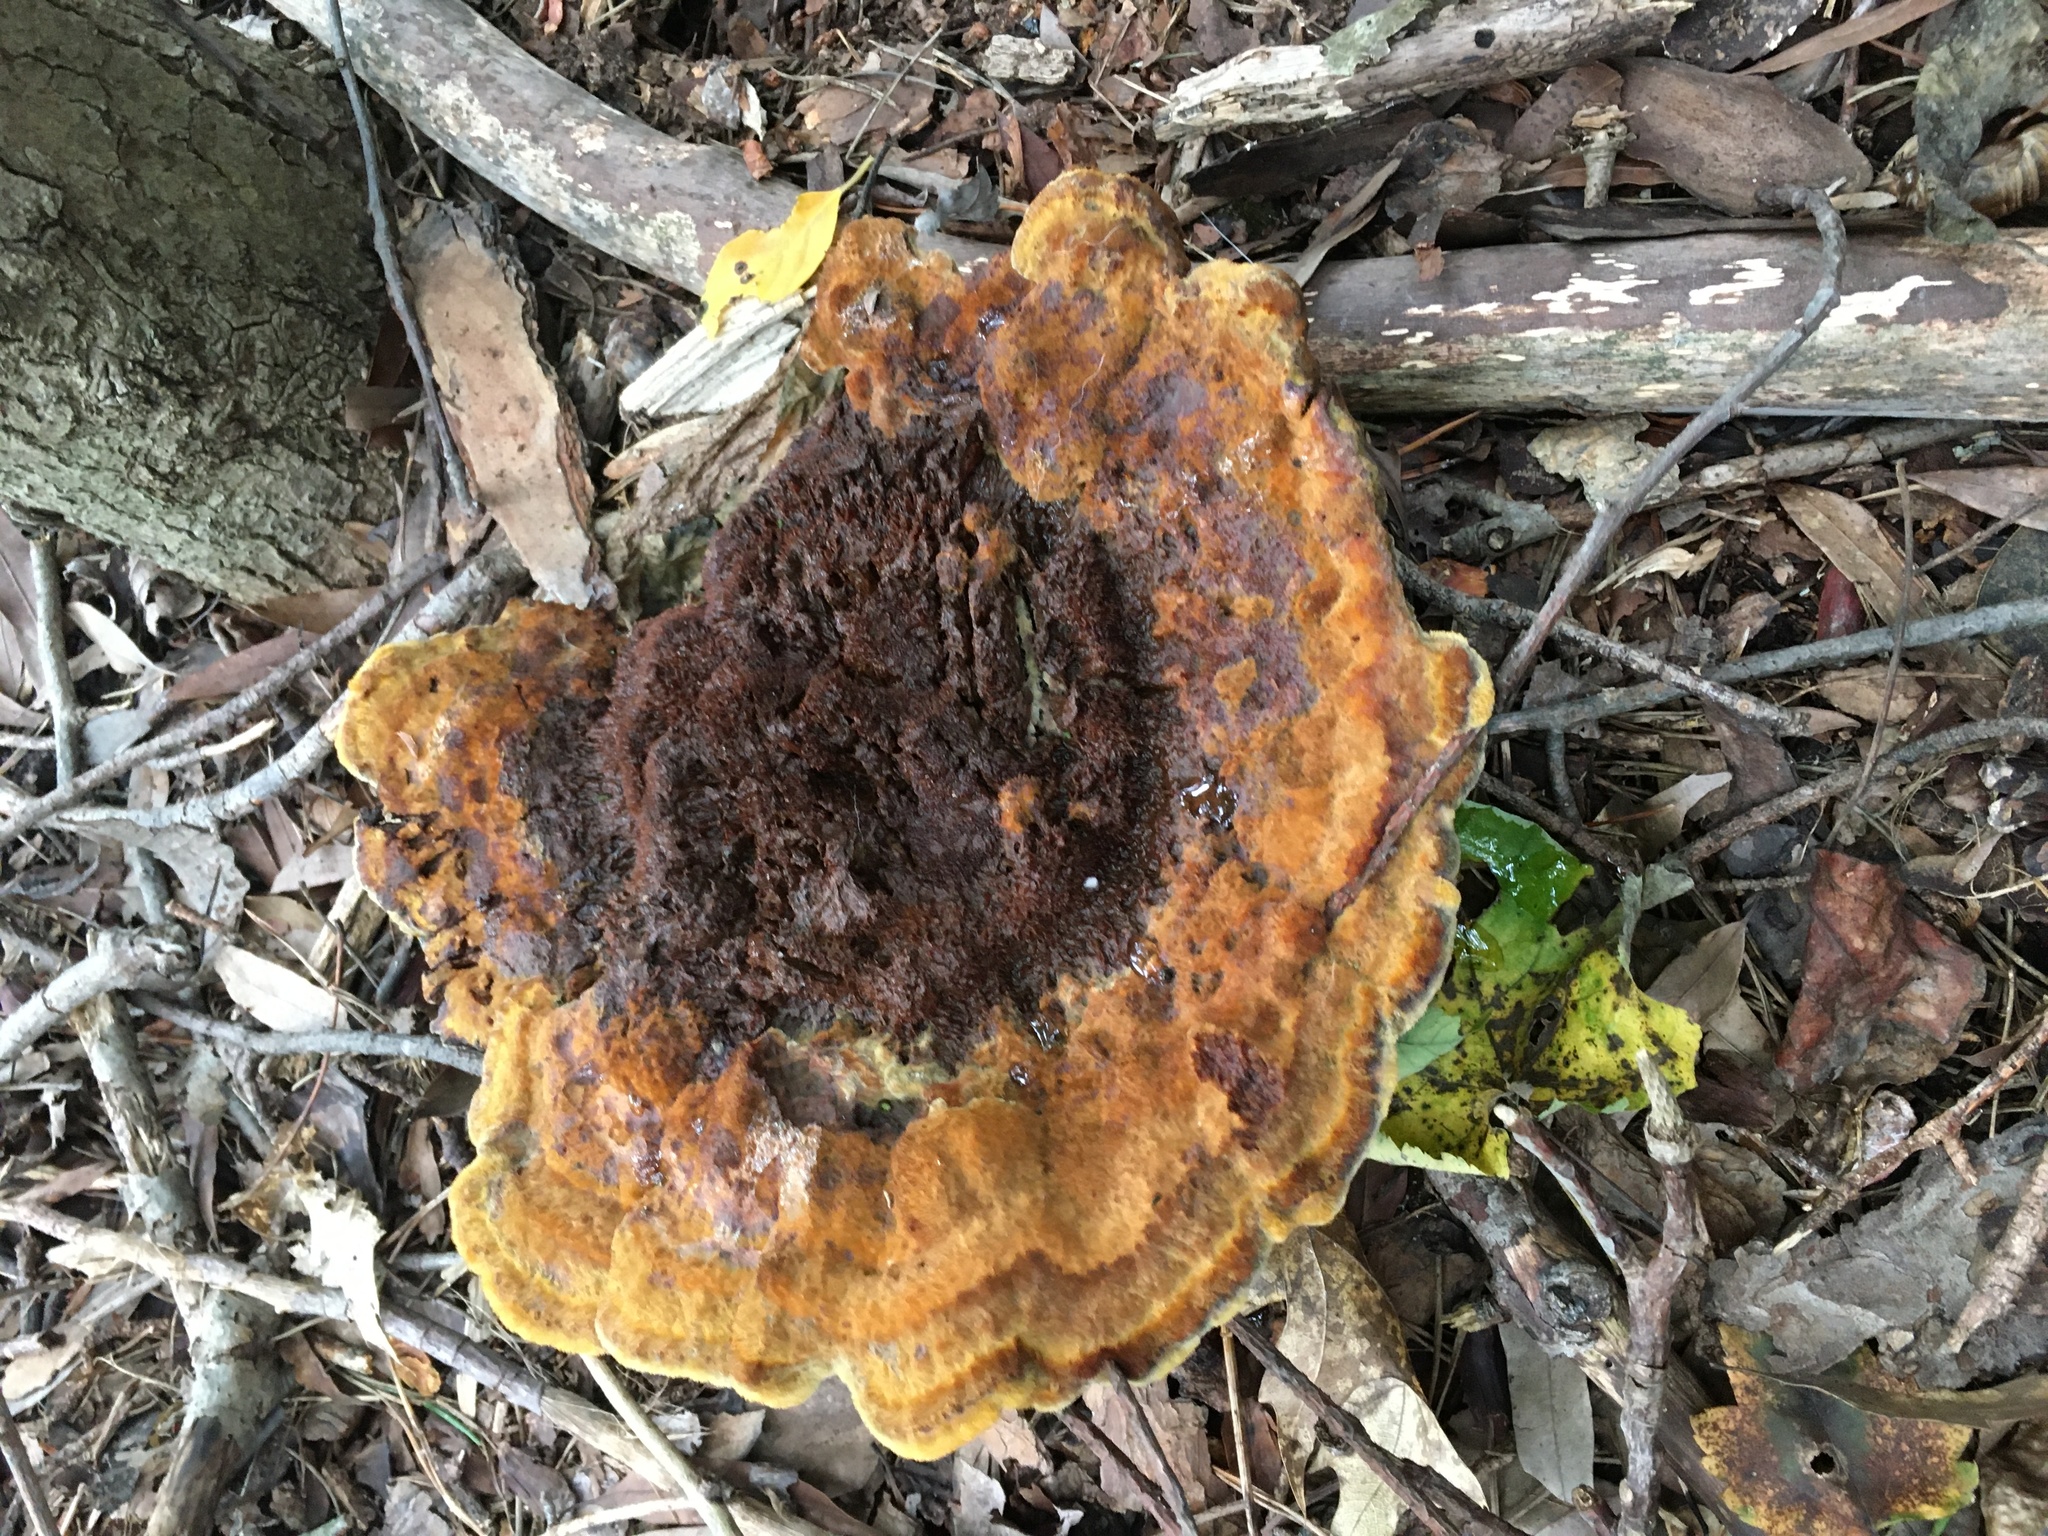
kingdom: Fungi
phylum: Basidiomycota
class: Agaricomycetes
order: Polyporales
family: Laetiporaceae
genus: Phaeolus
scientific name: Phaeolus schweinitzii
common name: Dyer's mazegill
